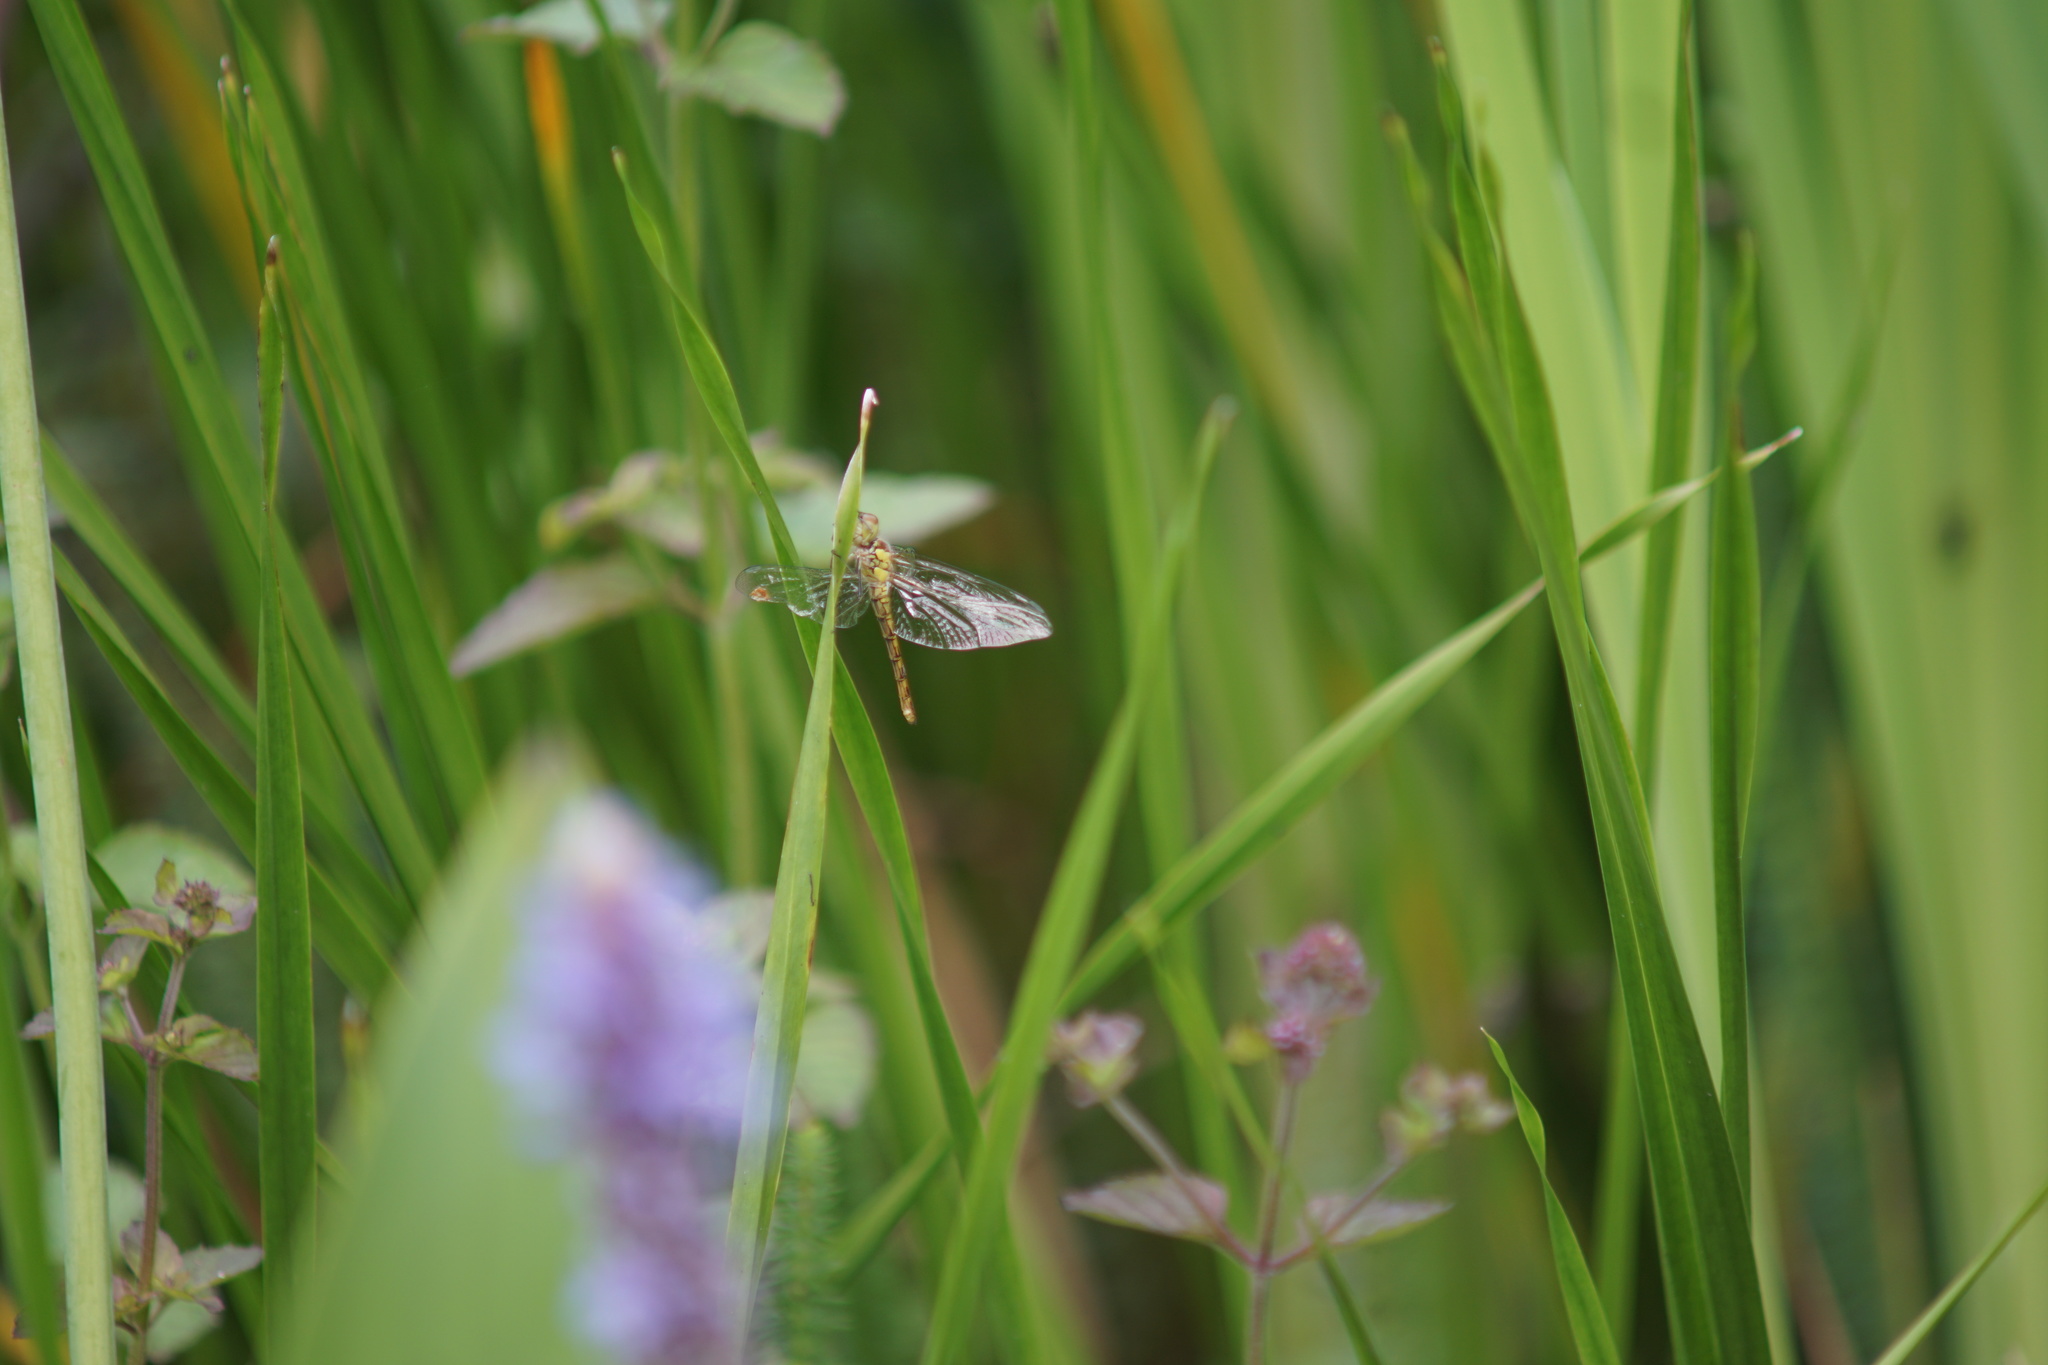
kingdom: Animalia
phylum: Arthropoda
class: Insecta
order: Odonata
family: Libellulidae
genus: Sympetrum
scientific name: Sympetrum striolatum
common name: Common darter
